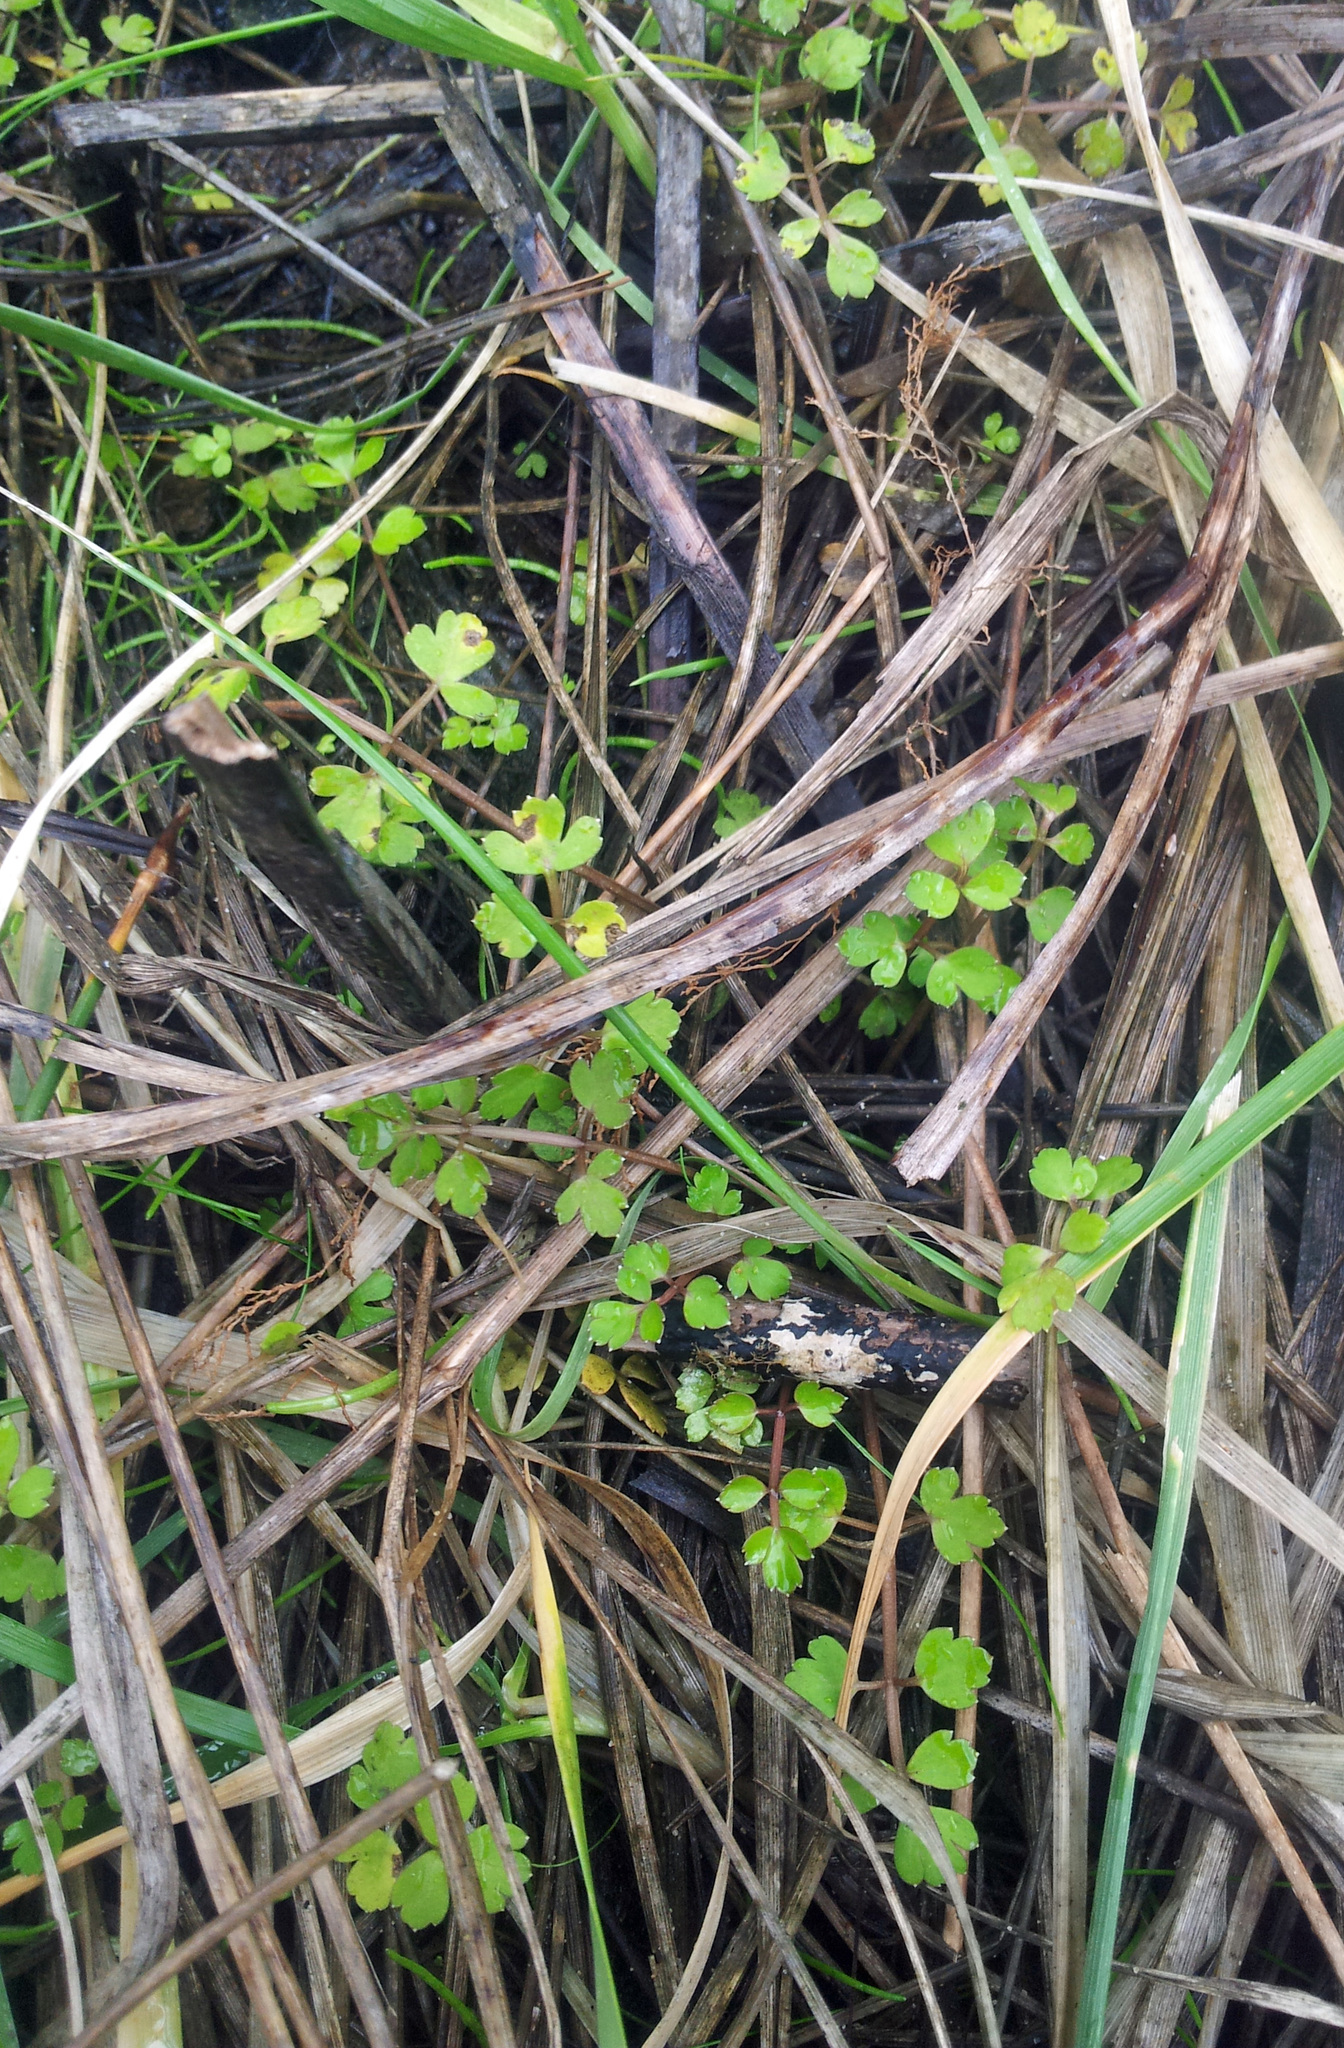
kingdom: Plantae
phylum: Tracheophyta
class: Magnoliopsida
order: Apiales
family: Apiaceae
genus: Apium
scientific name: Apium prostratum
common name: Prostrate marshwort
